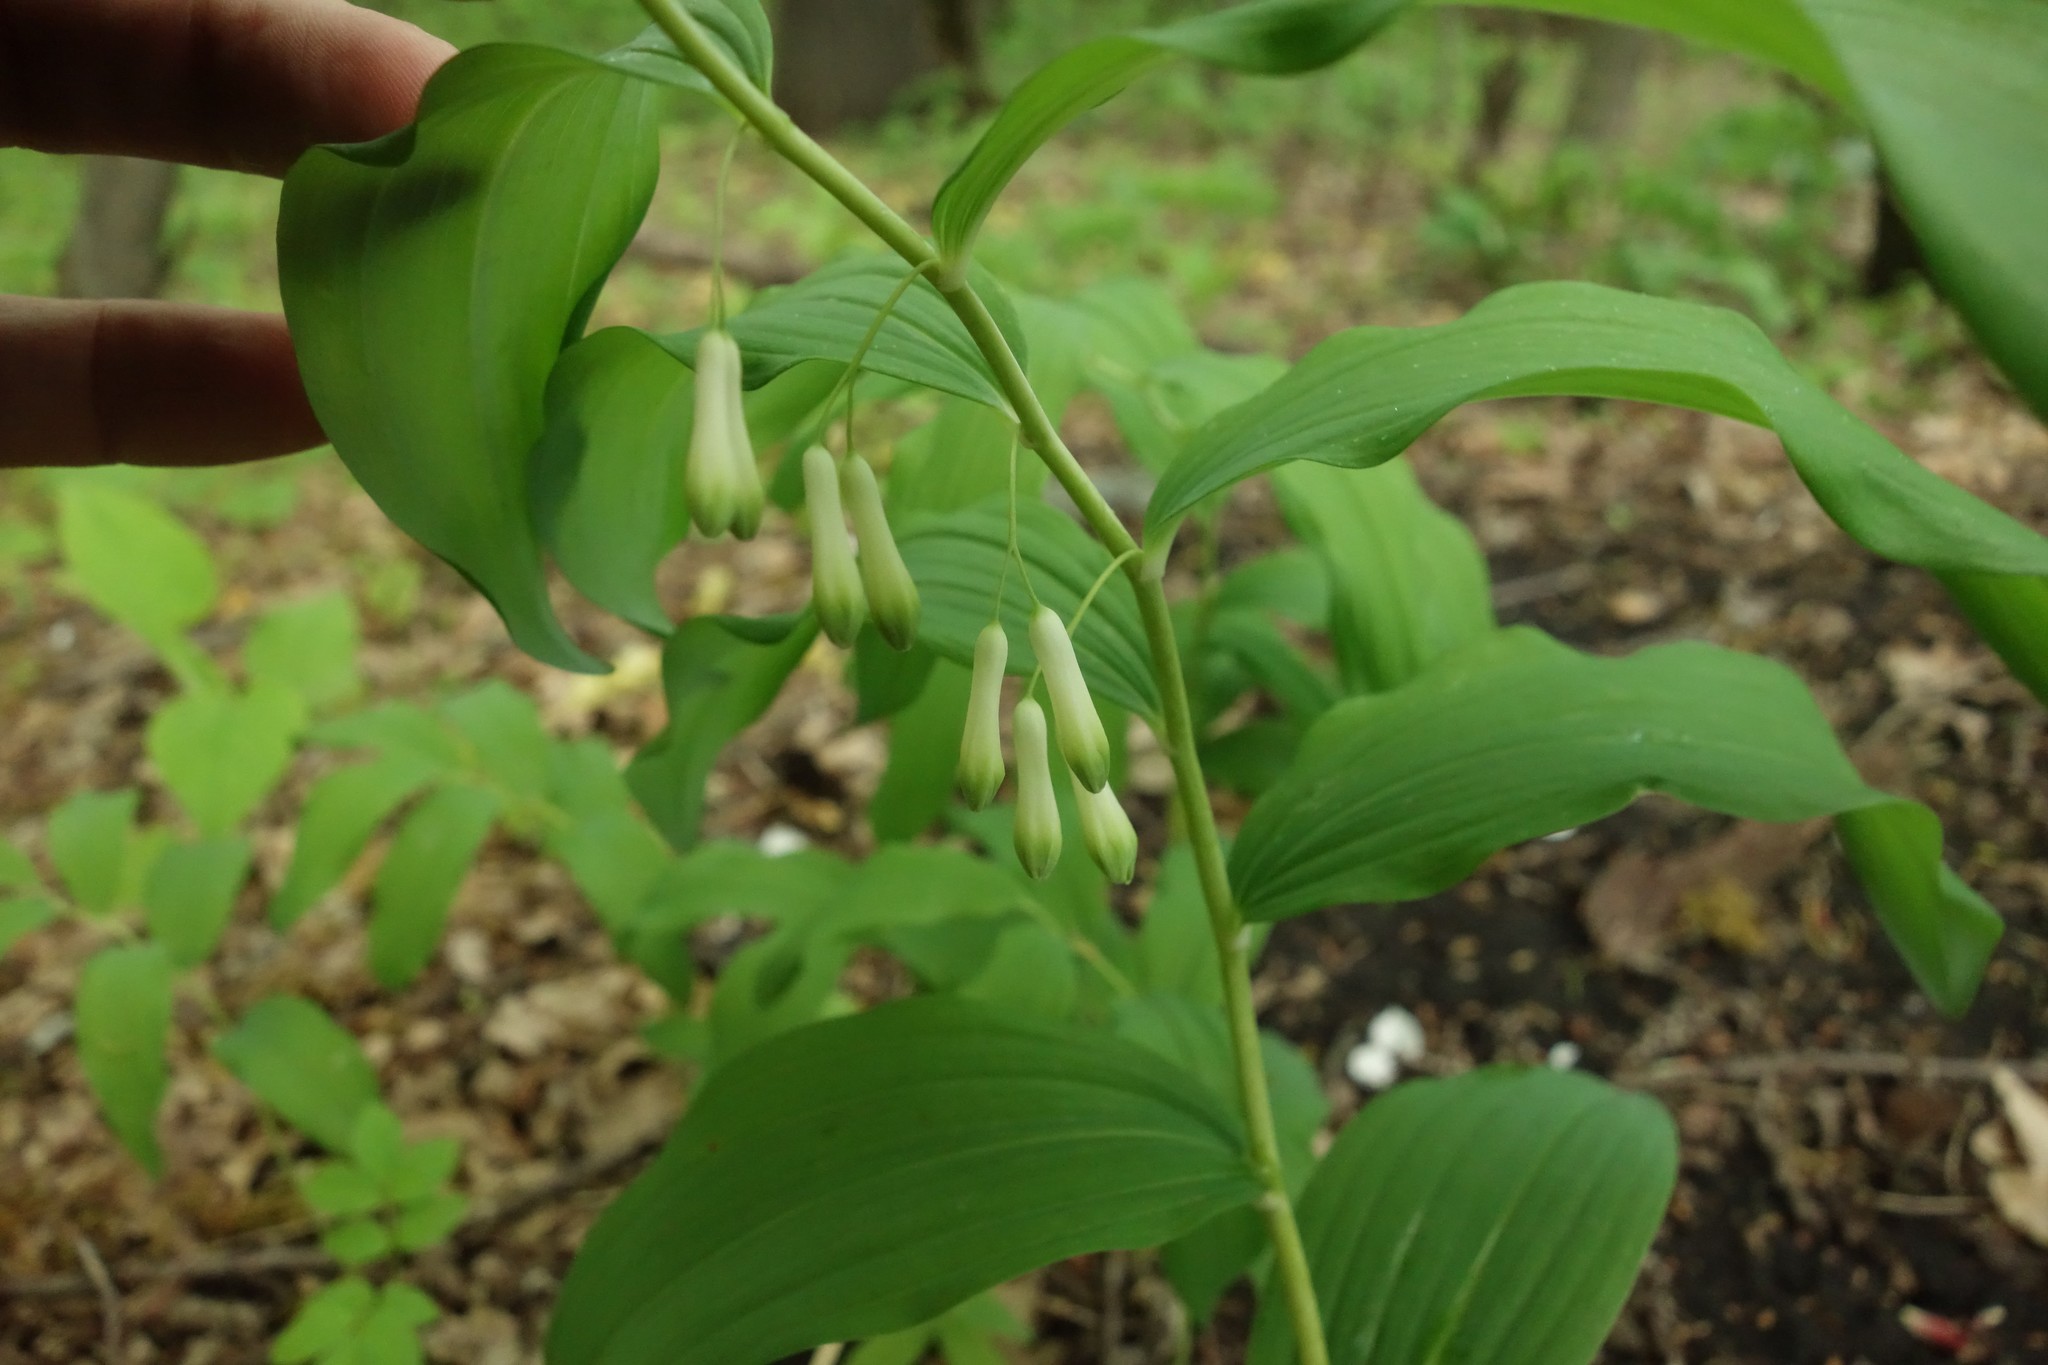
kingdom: Plantae
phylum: Tracheophyta
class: Liliopsida
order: Asparagales
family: Asparagaceae
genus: Polygonatum
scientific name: Polygonatum multiflorum
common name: Solomon's-seal
